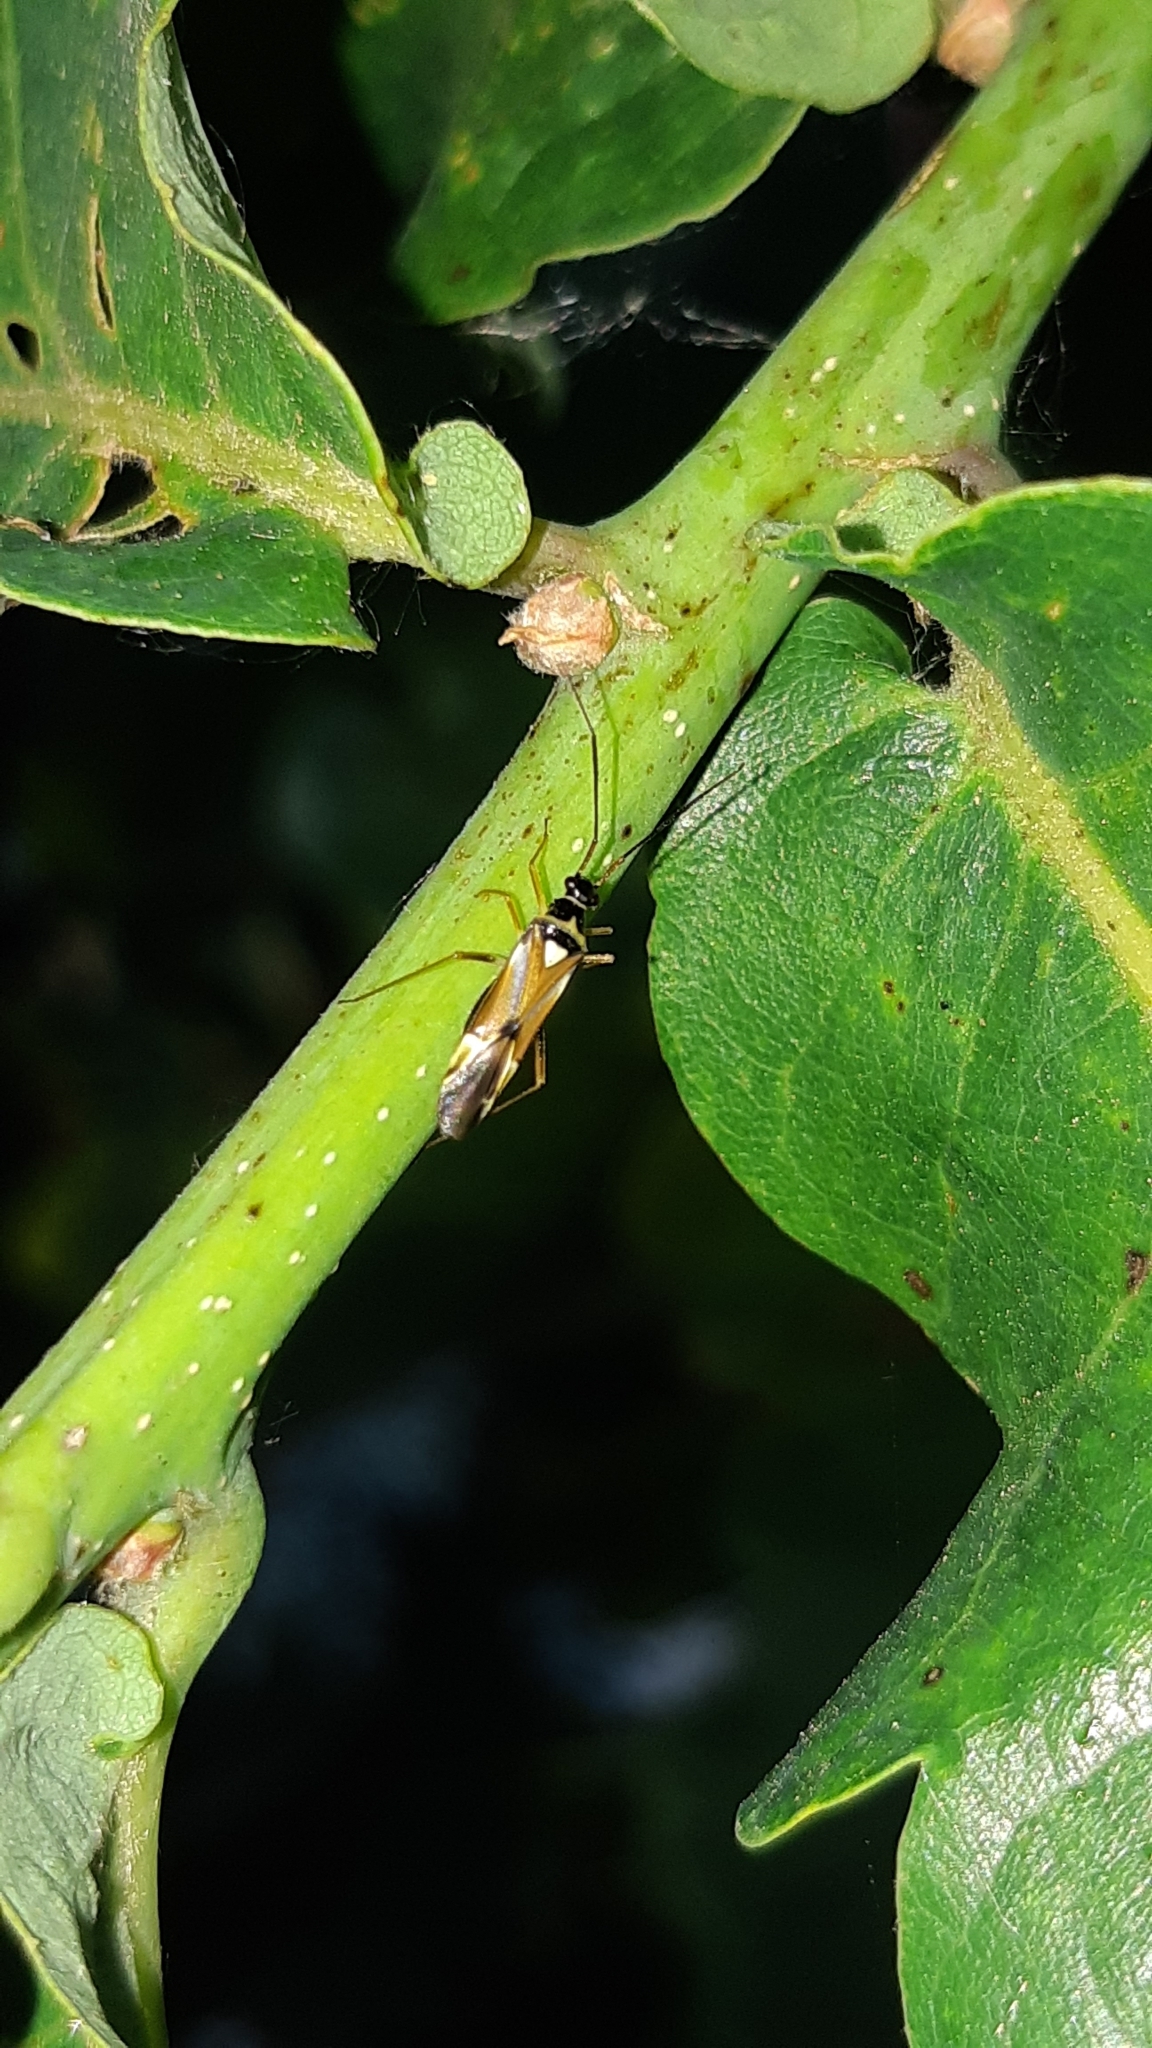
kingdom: Animalia
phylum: Arthropoda
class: Insecta
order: Hemiptera
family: Miridae
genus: Cyllecoris
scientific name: Cyllecoris histrionius
